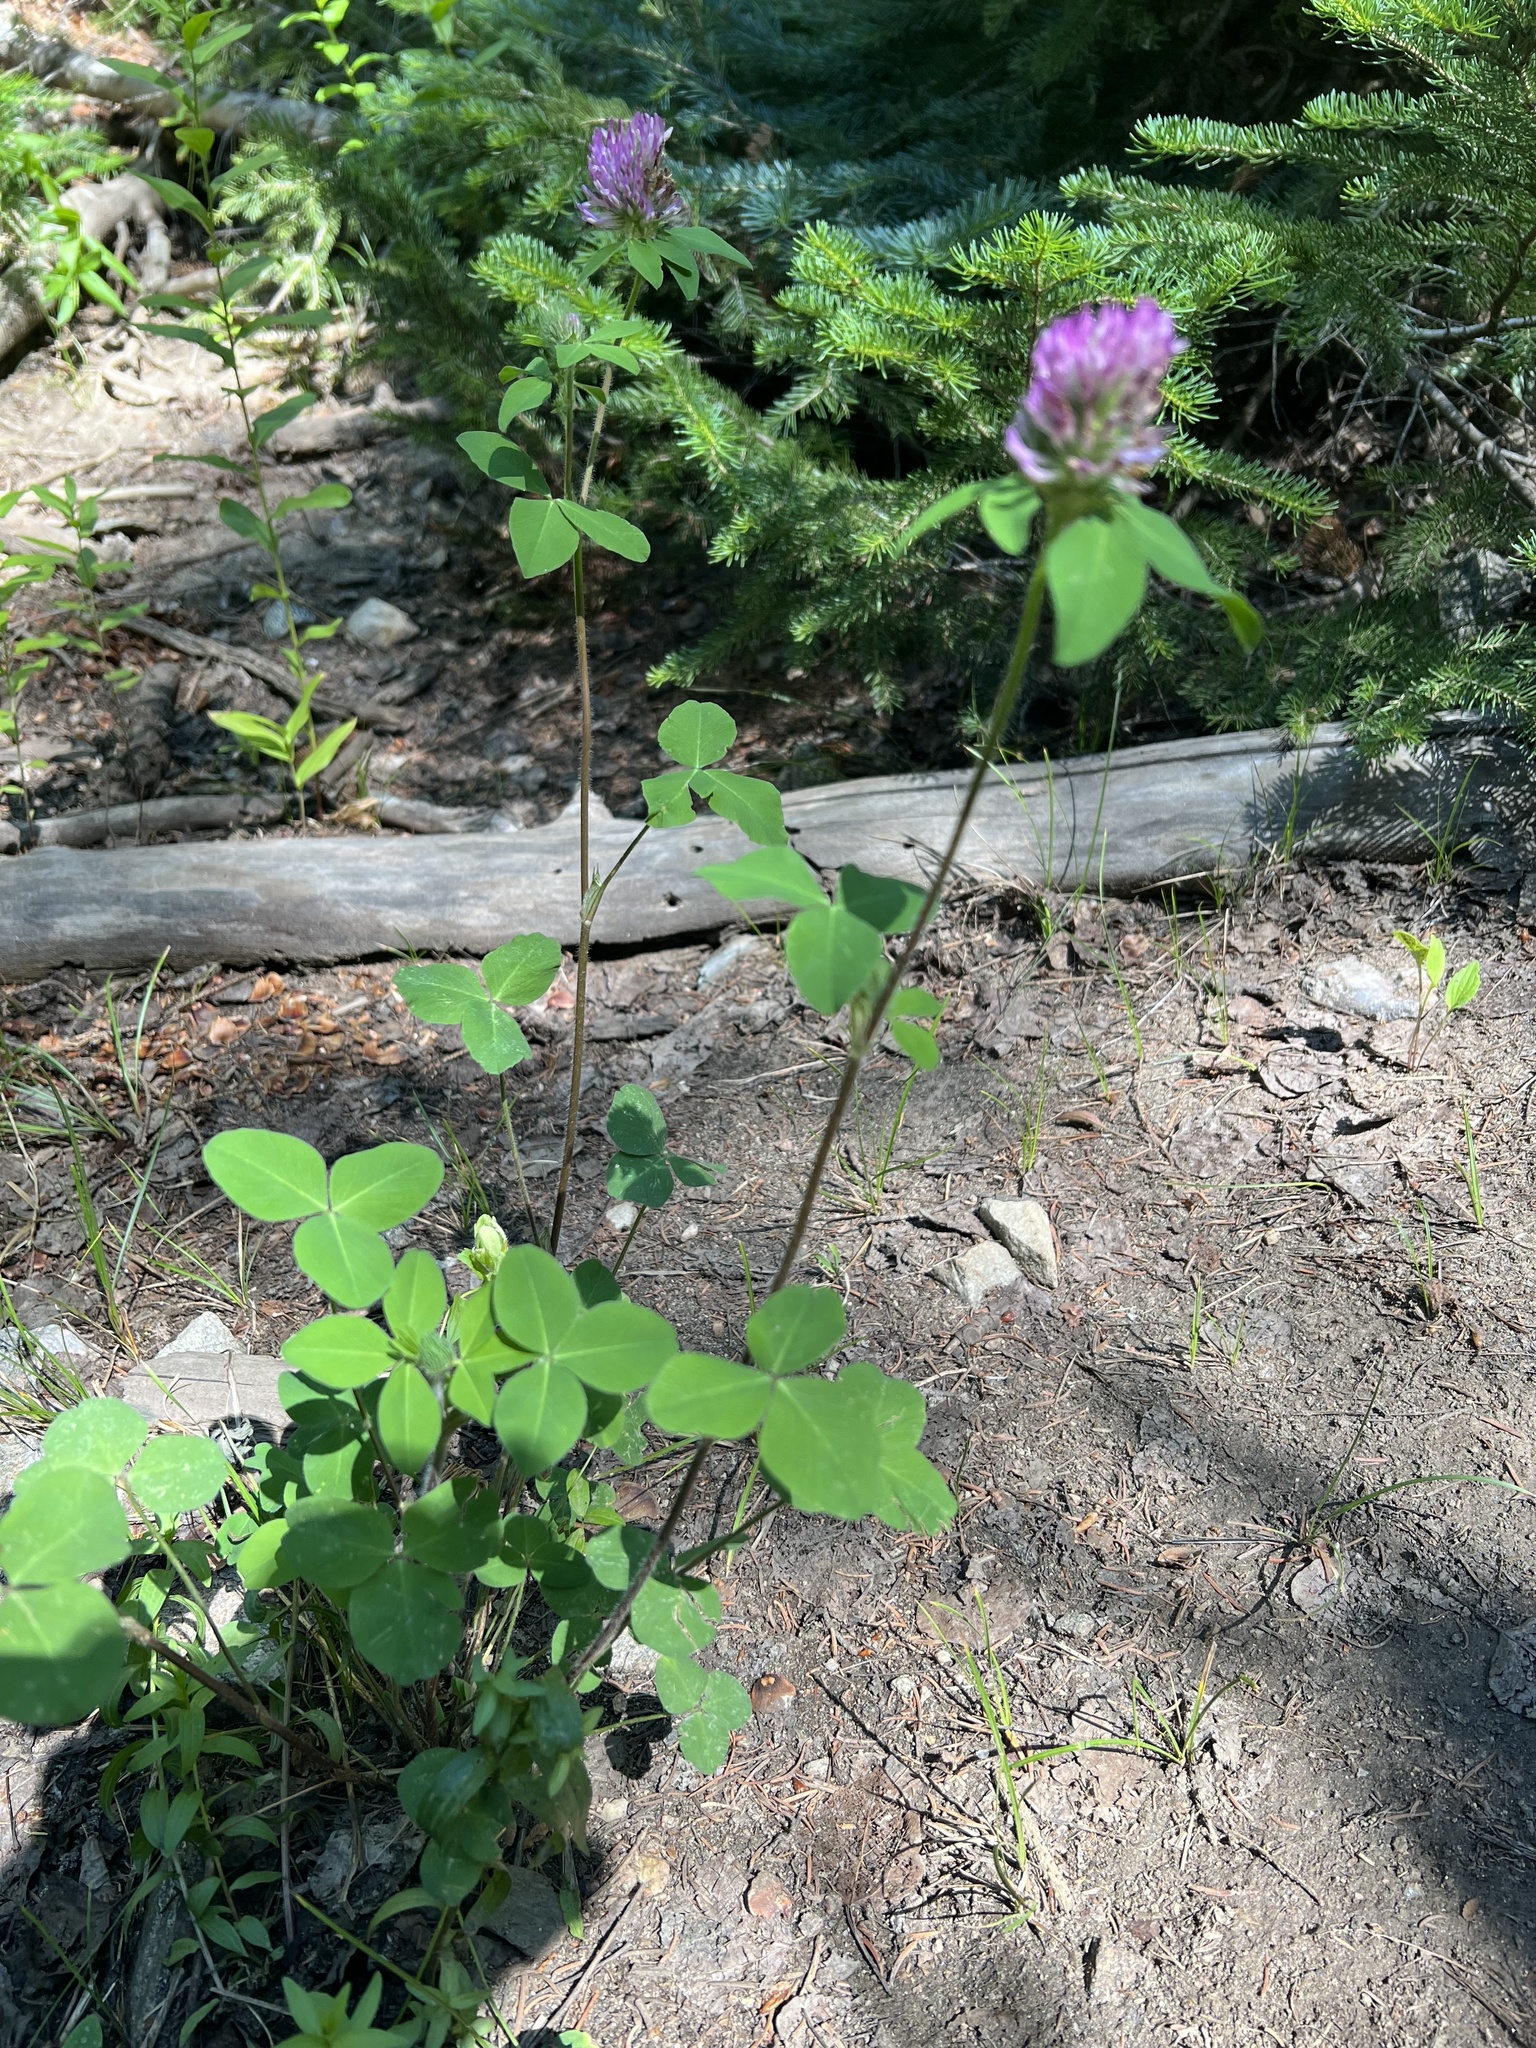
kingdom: Plantae
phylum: Tracheophyta
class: Magnoliopsida
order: Fabales
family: Fabaceae
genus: Trifolium
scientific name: Trifolium pratense
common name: Red clover
